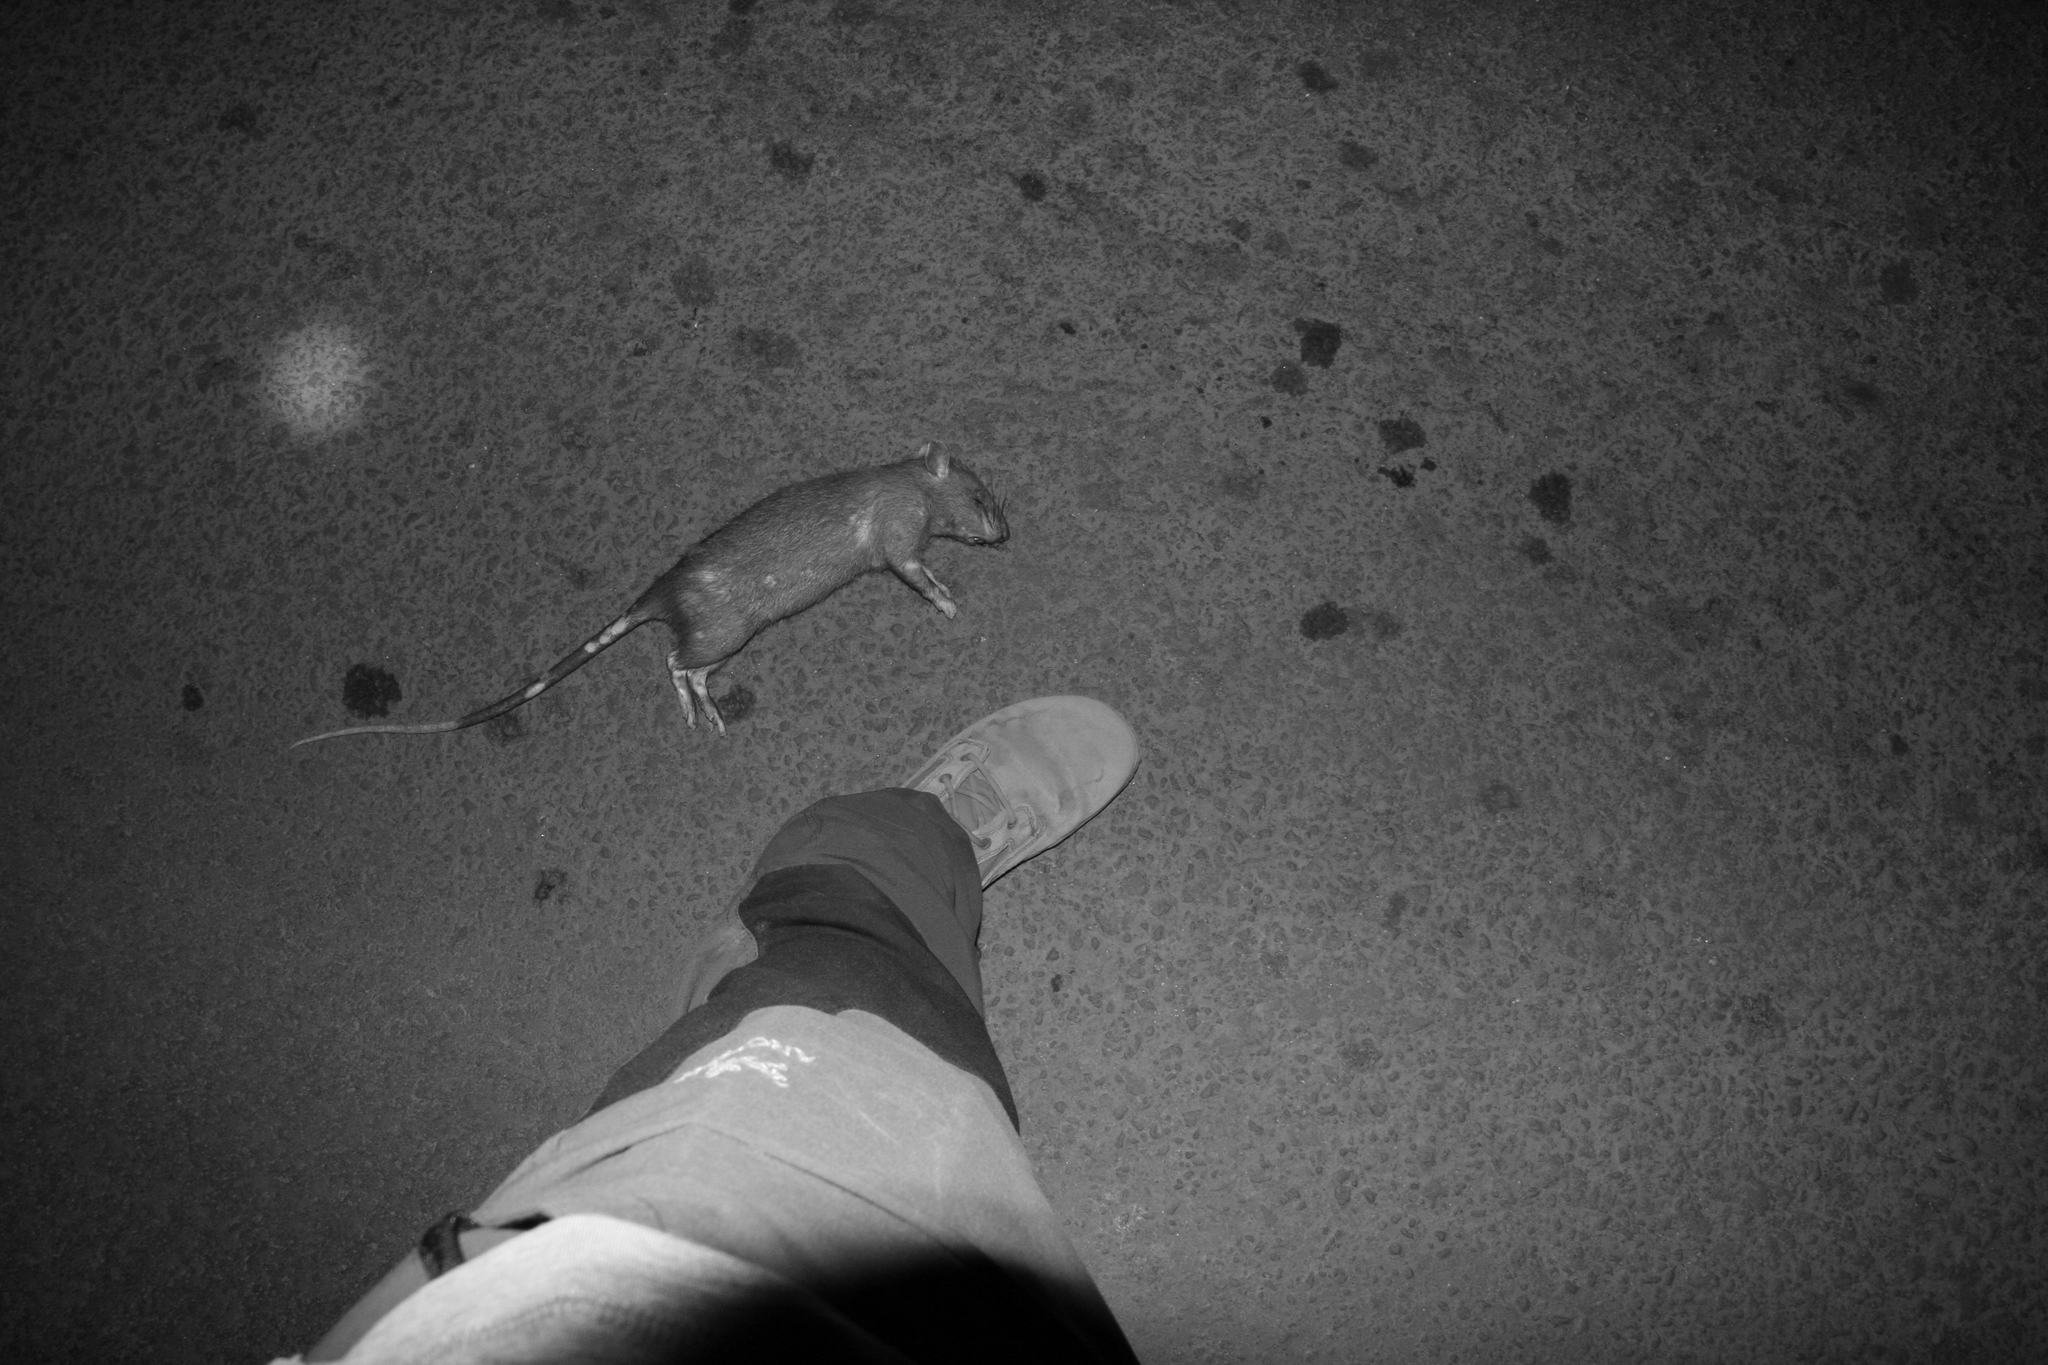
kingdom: Animalia
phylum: Chordata
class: Mammalia
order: Rodentia
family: Nesomyidae
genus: Cricetomys
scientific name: Cricetomys gambianus
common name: Northern giant pouched rat
